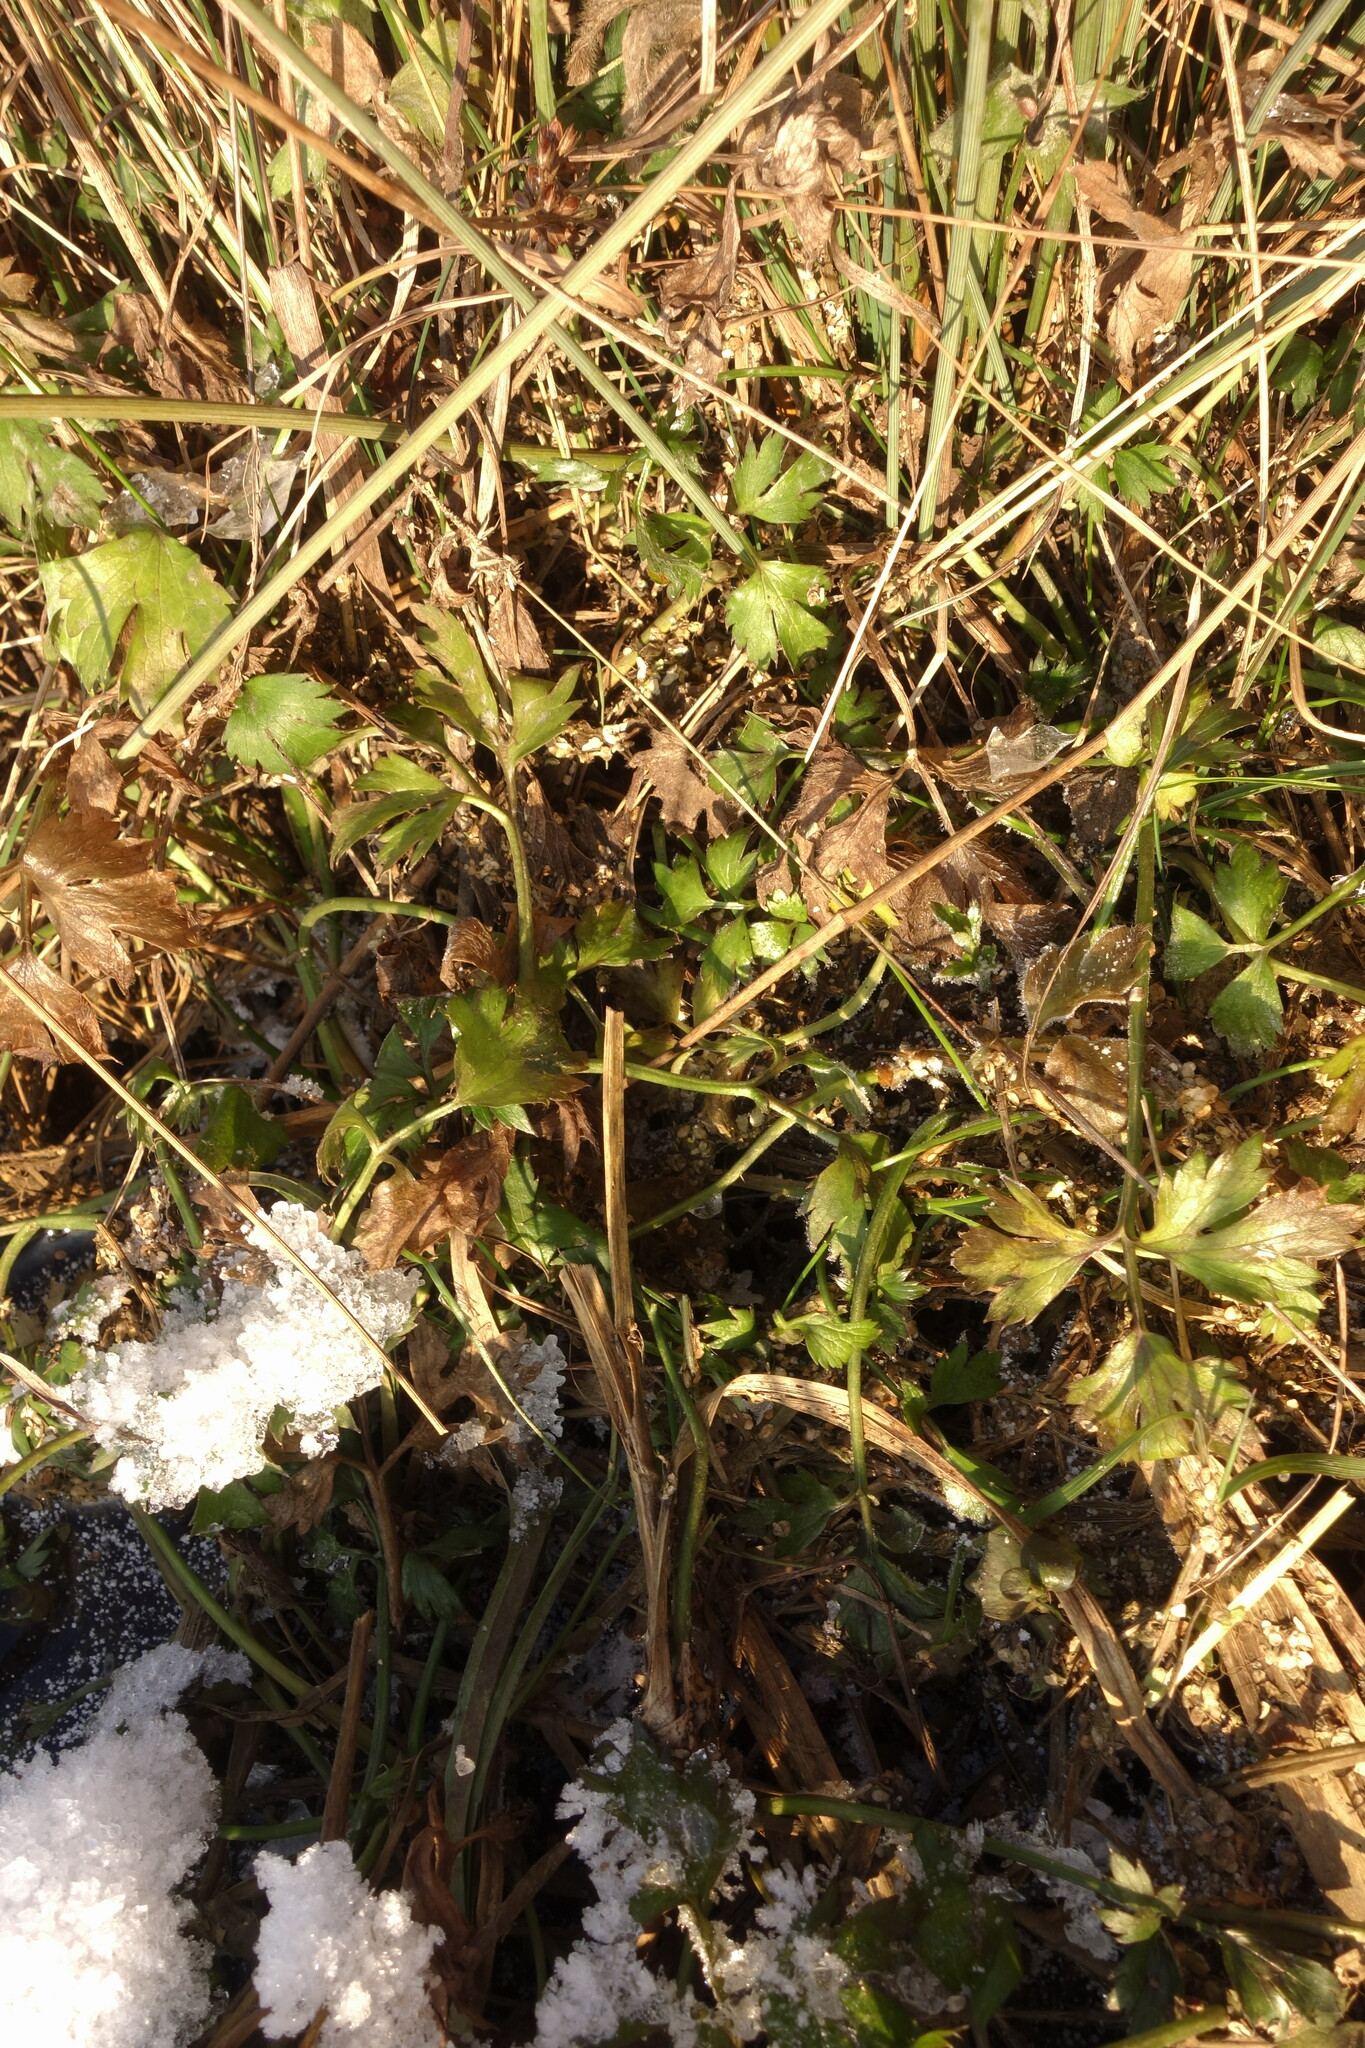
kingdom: Plantae
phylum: Tracheophyta
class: Magnoliopsida
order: Ranunculales
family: Ranunculaceae
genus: Ranunculus
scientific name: Ranunculus repens
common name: Creeping buttercup
